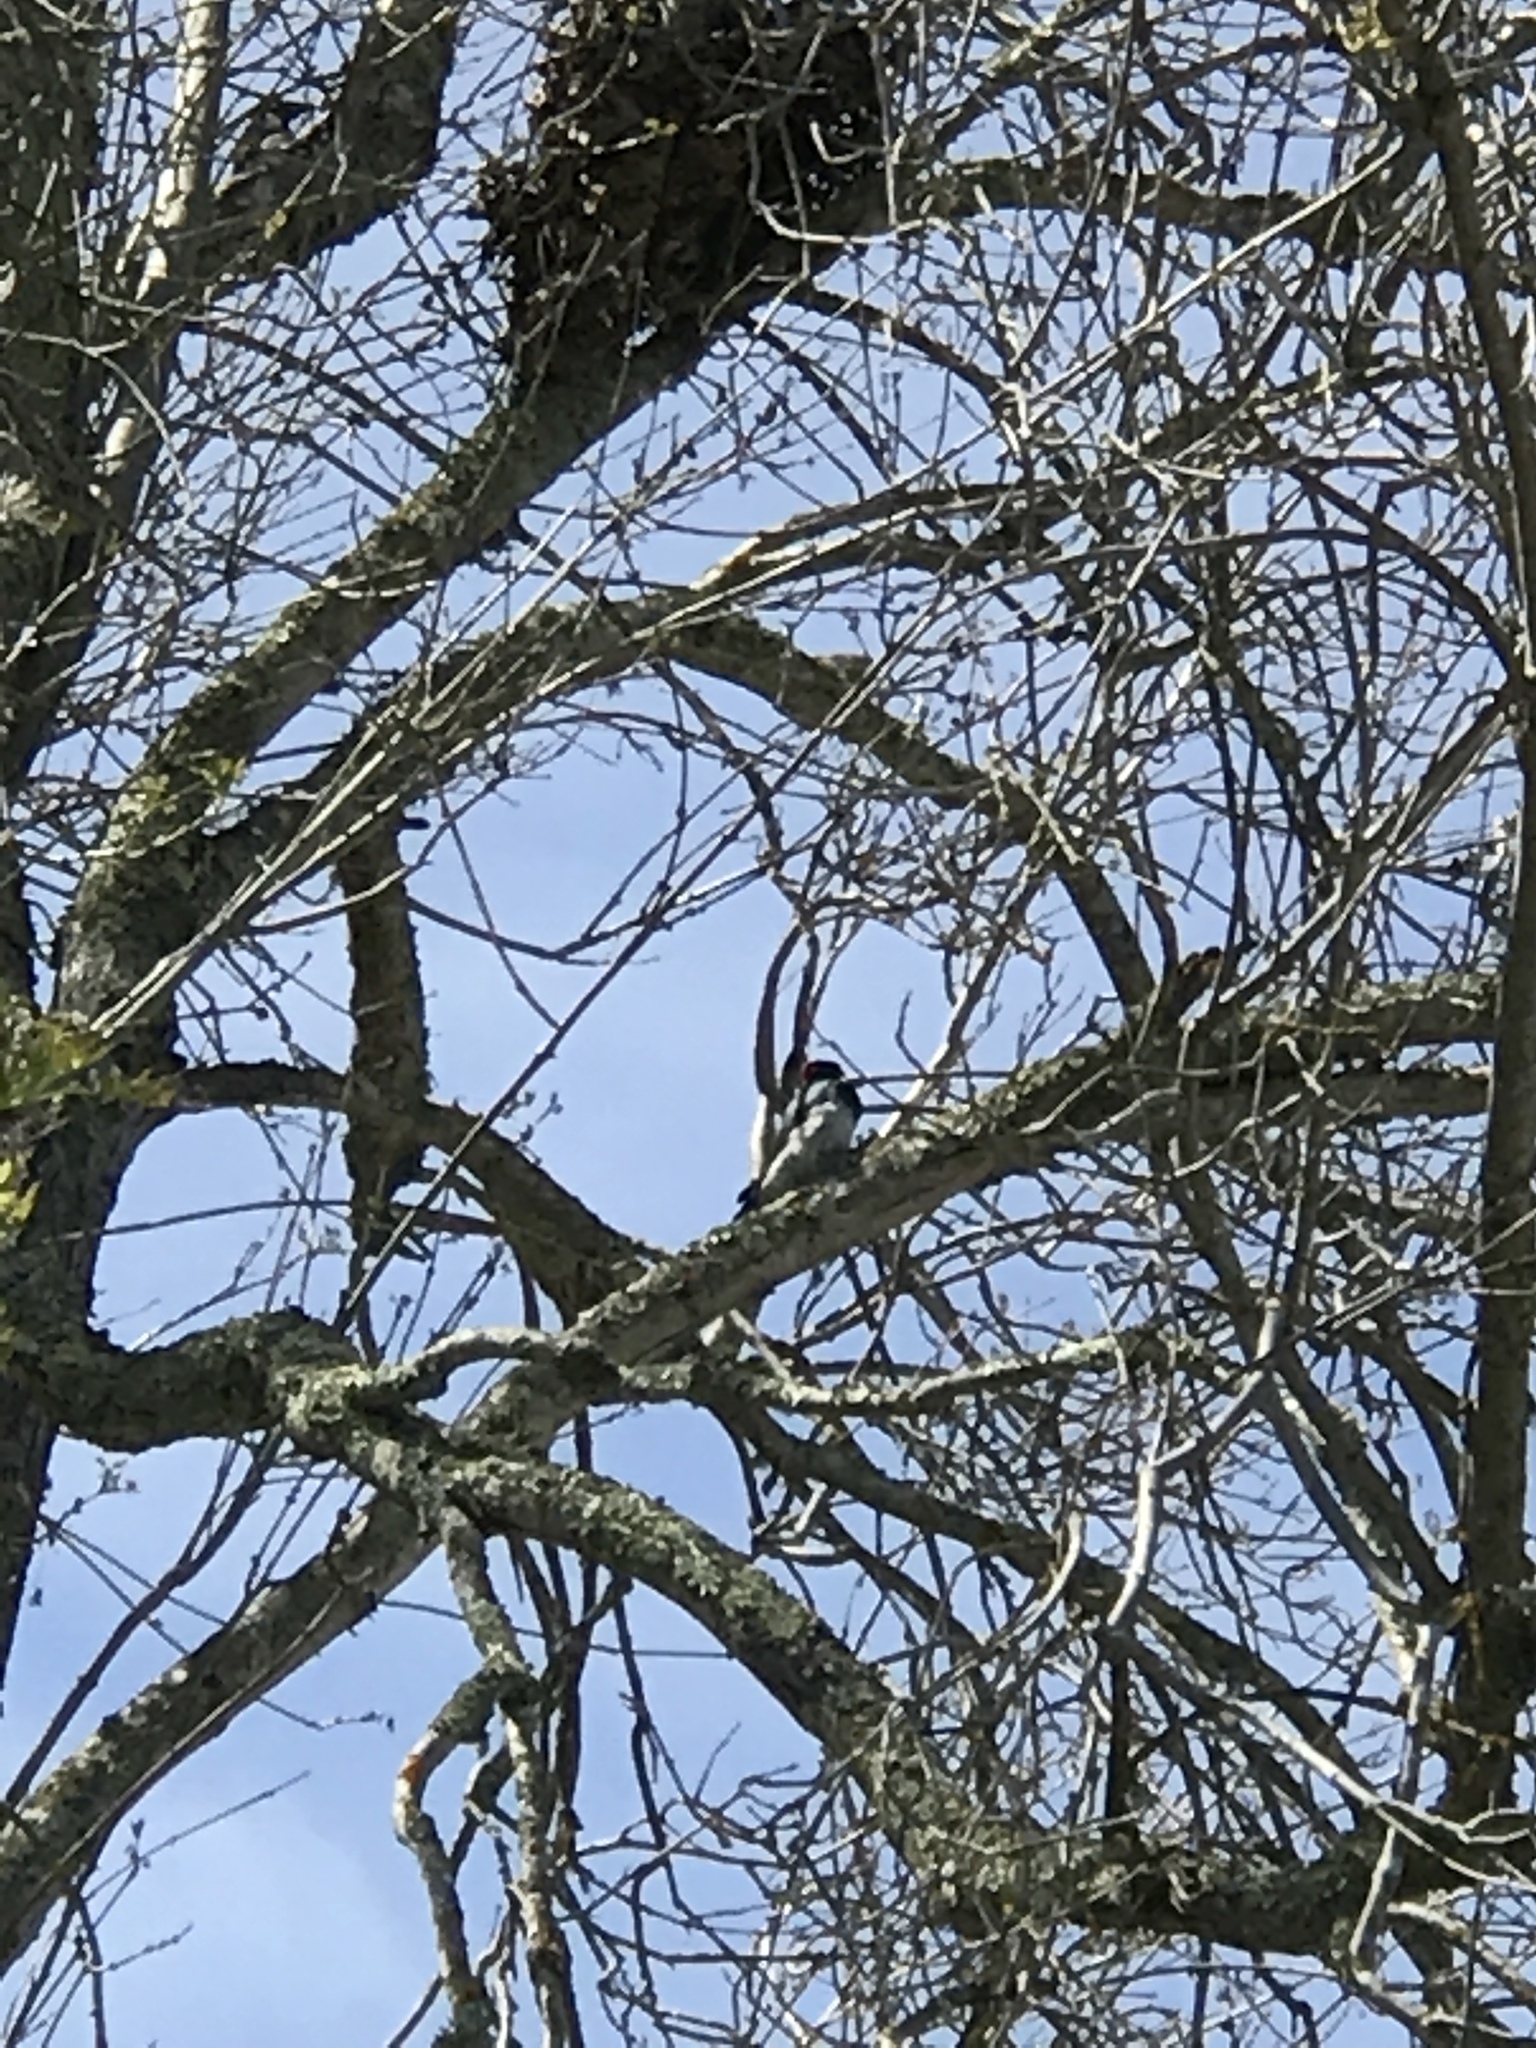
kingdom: Animalia
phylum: Chordata
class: Aves
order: Piciformes
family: Picidae
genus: Melanerpes
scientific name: Melanerpes formicivorus
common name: Acorn woodpecker
